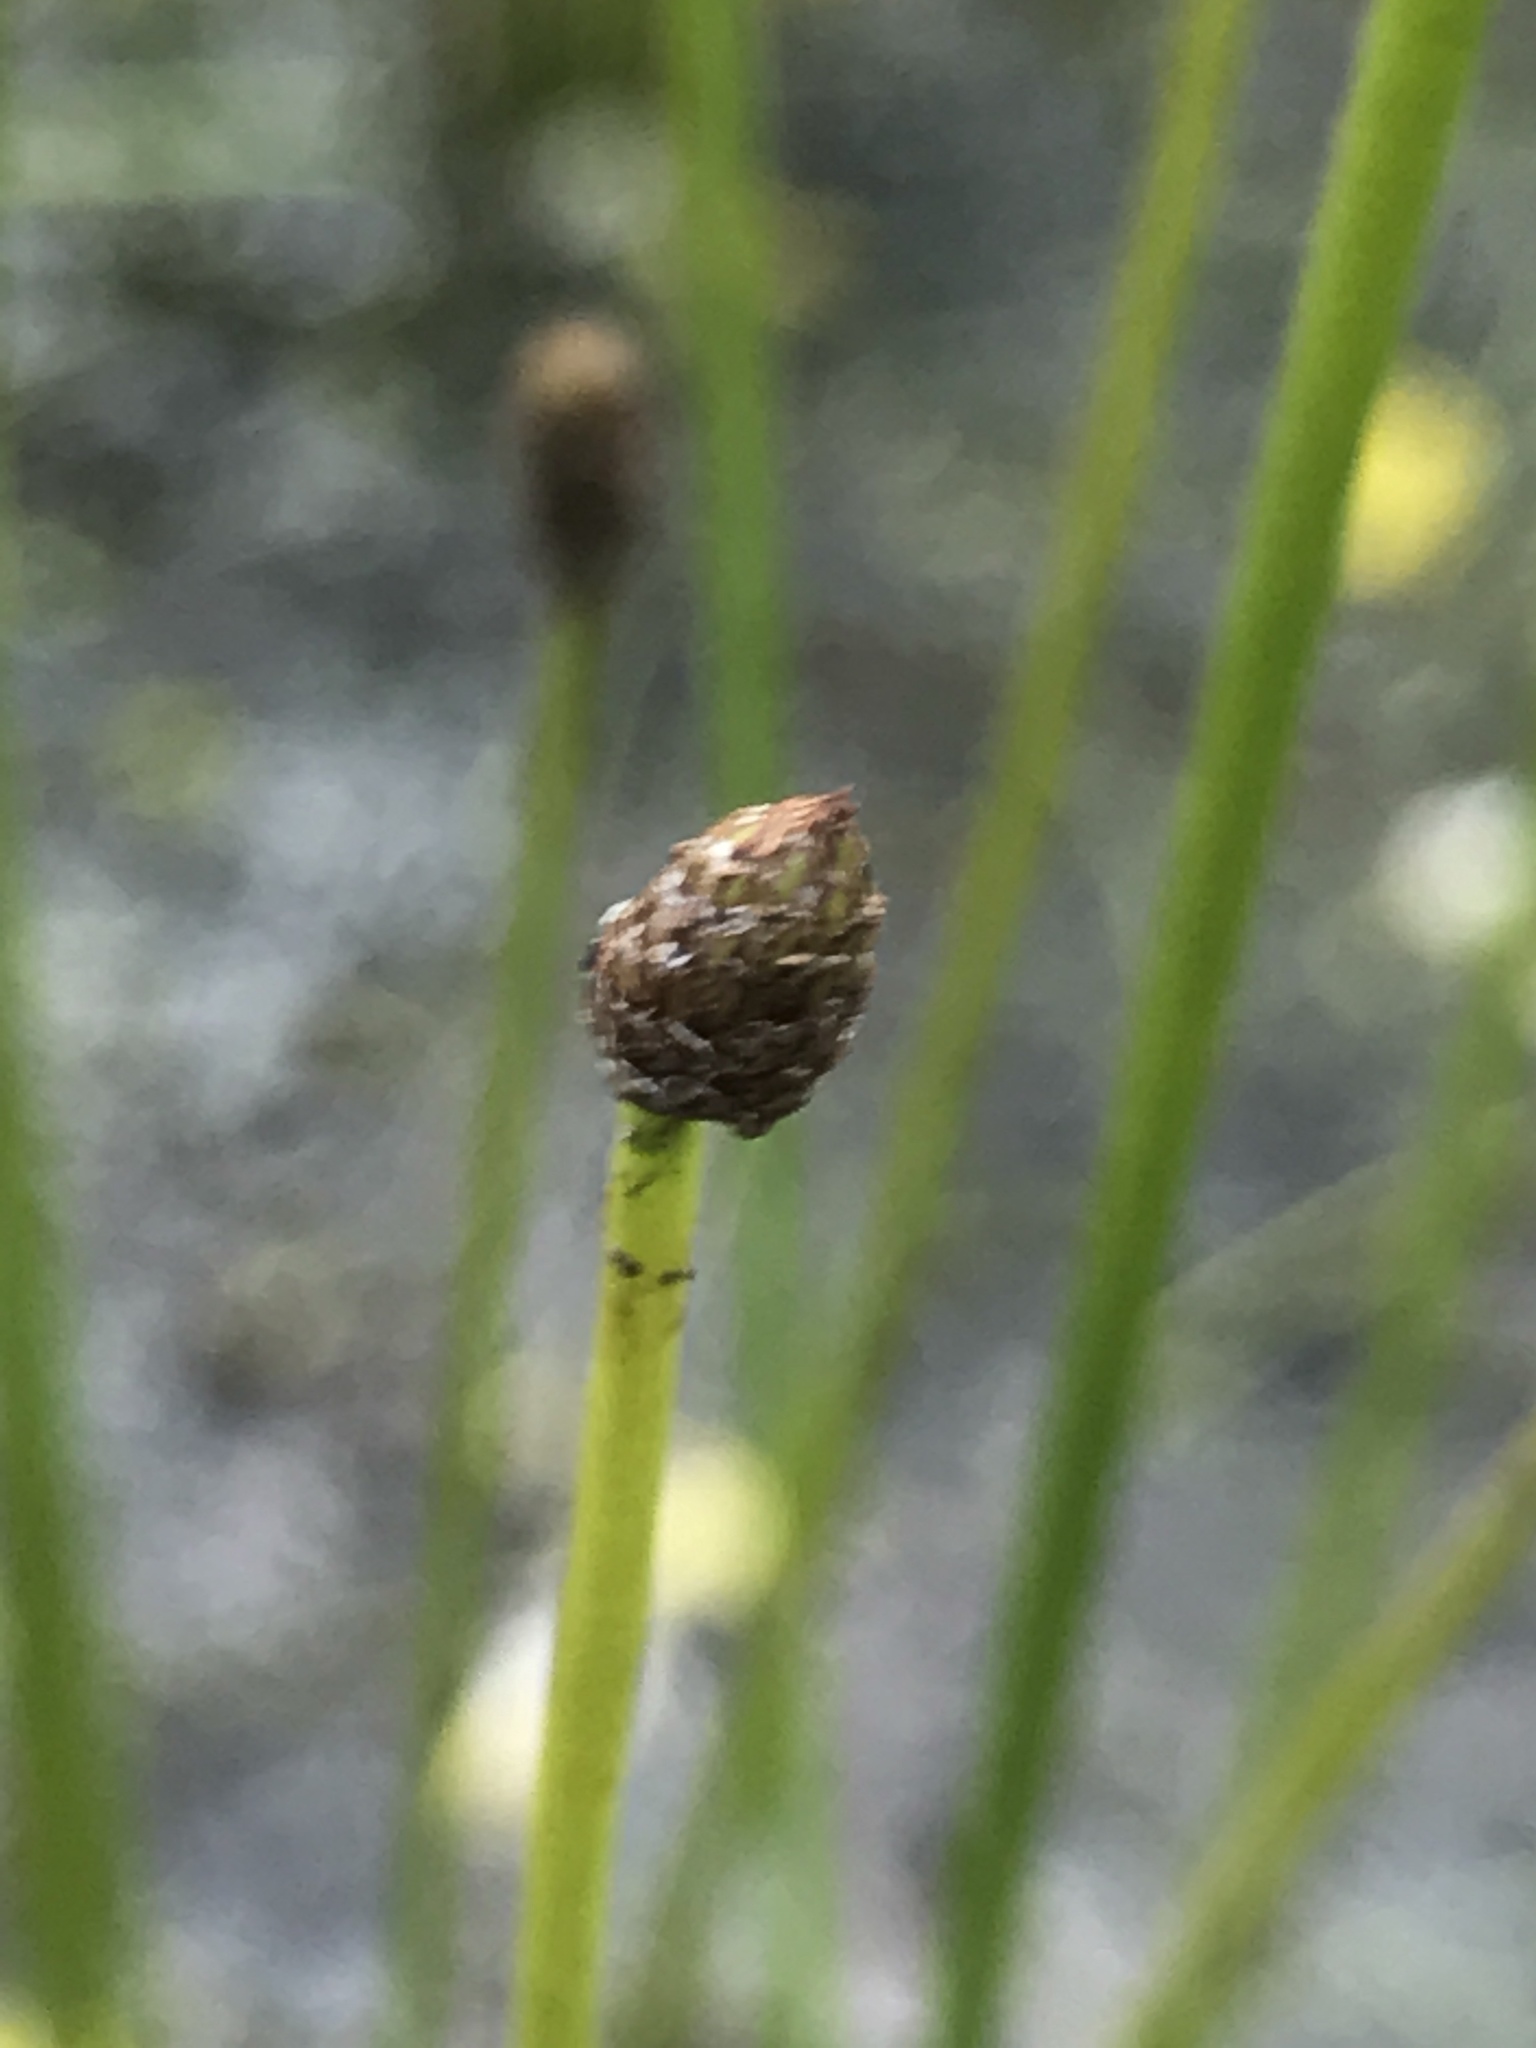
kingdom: Plantae
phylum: Tracheophyta
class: Liliopsida
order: Poales
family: Cyperaceae
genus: Eleocharis
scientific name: Eleocharis obtusa
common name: Blunt spikerush
